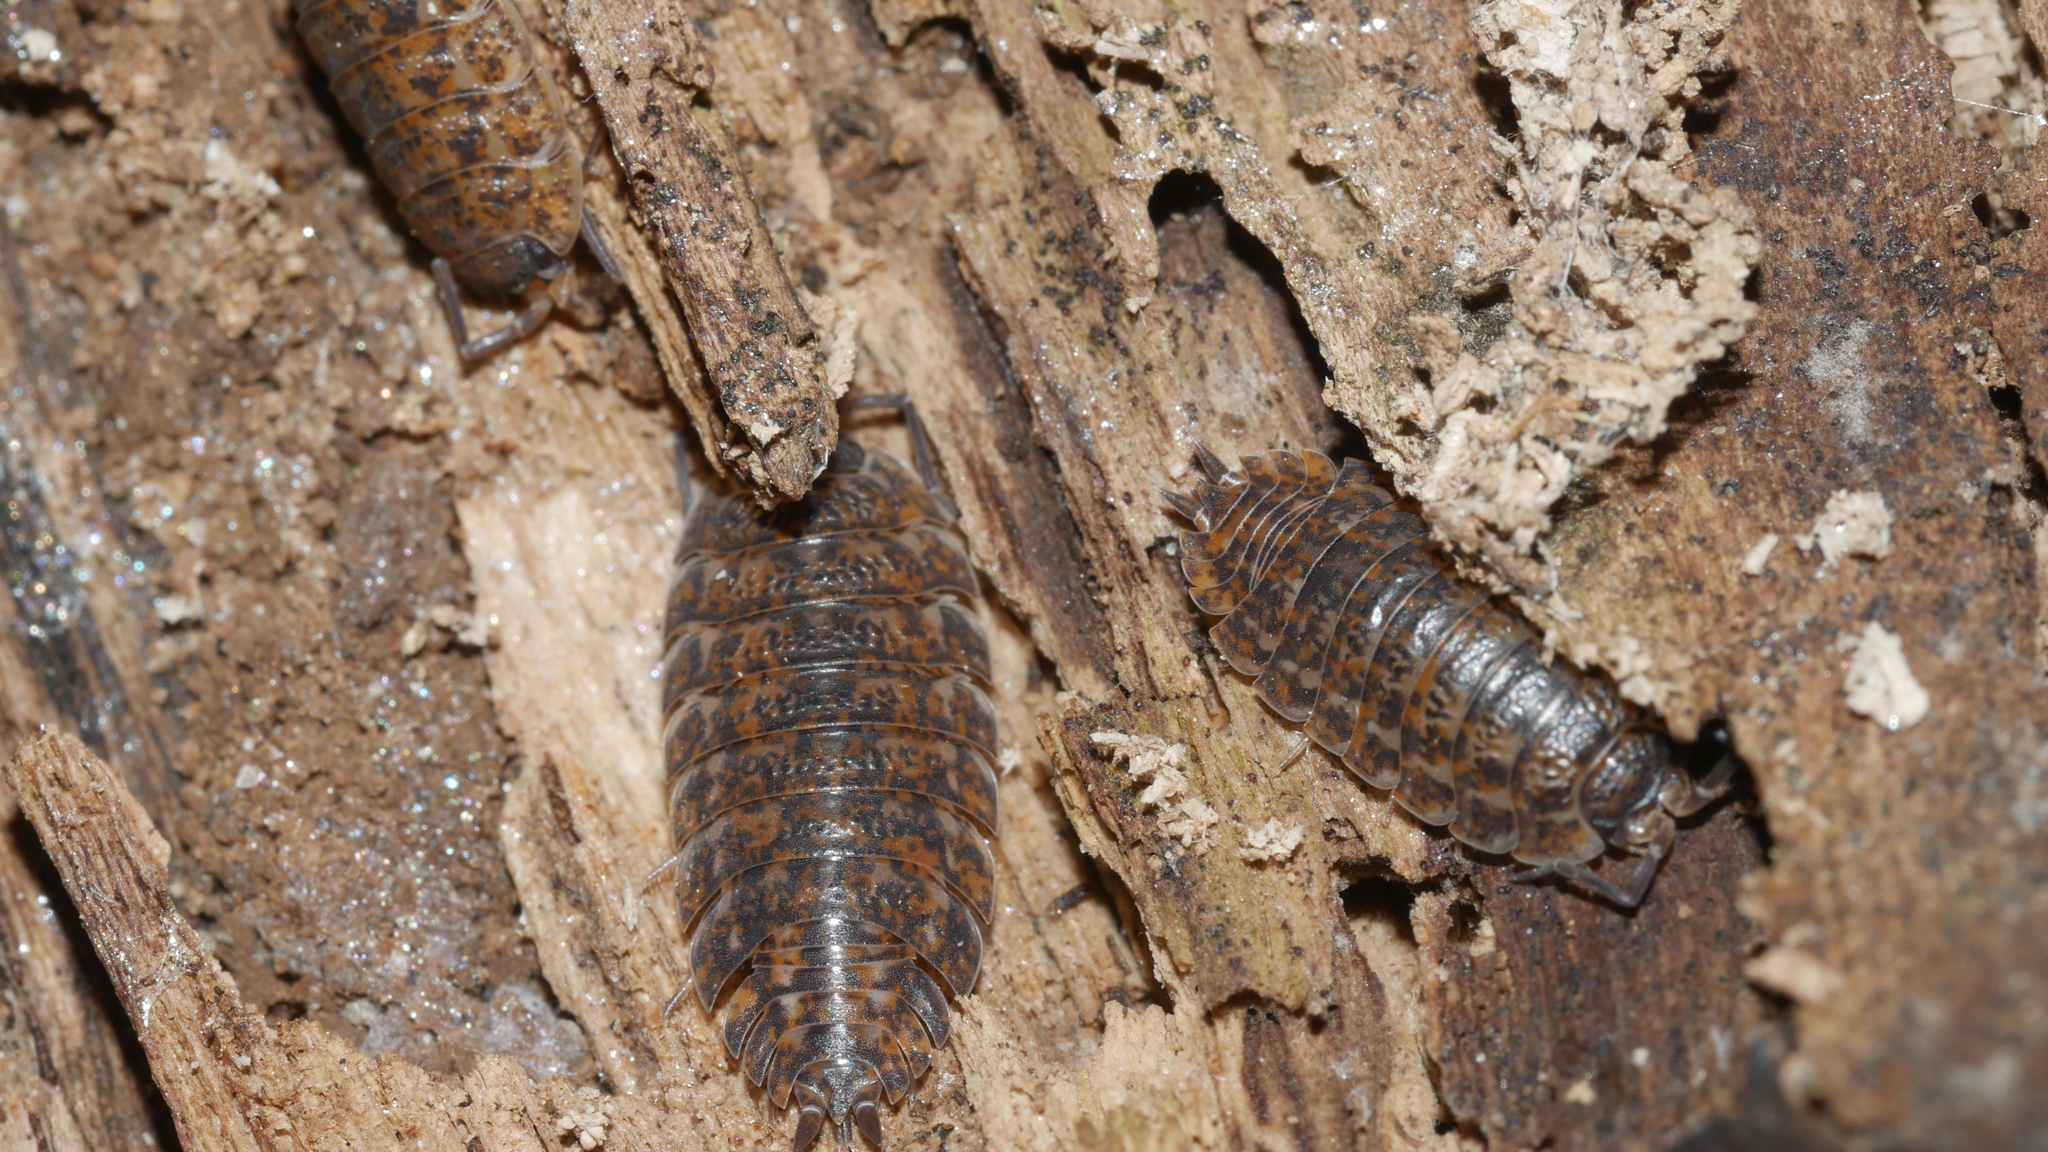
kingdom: Animalia
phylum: Arthropoda
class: Malacostraca
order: Isopoda
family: Trachelipodidae
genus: Trachelipus
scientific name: Trachelipus rathkii
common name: Isopod
